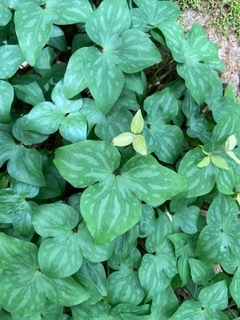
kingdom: Plantae
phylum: Tracheophyta
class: Magnoliopsida
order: Ranunculales
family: Ranunculaceae
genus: Hepatica
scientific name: Hepatica acutiloba
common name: Sharp-lobed hepatica
